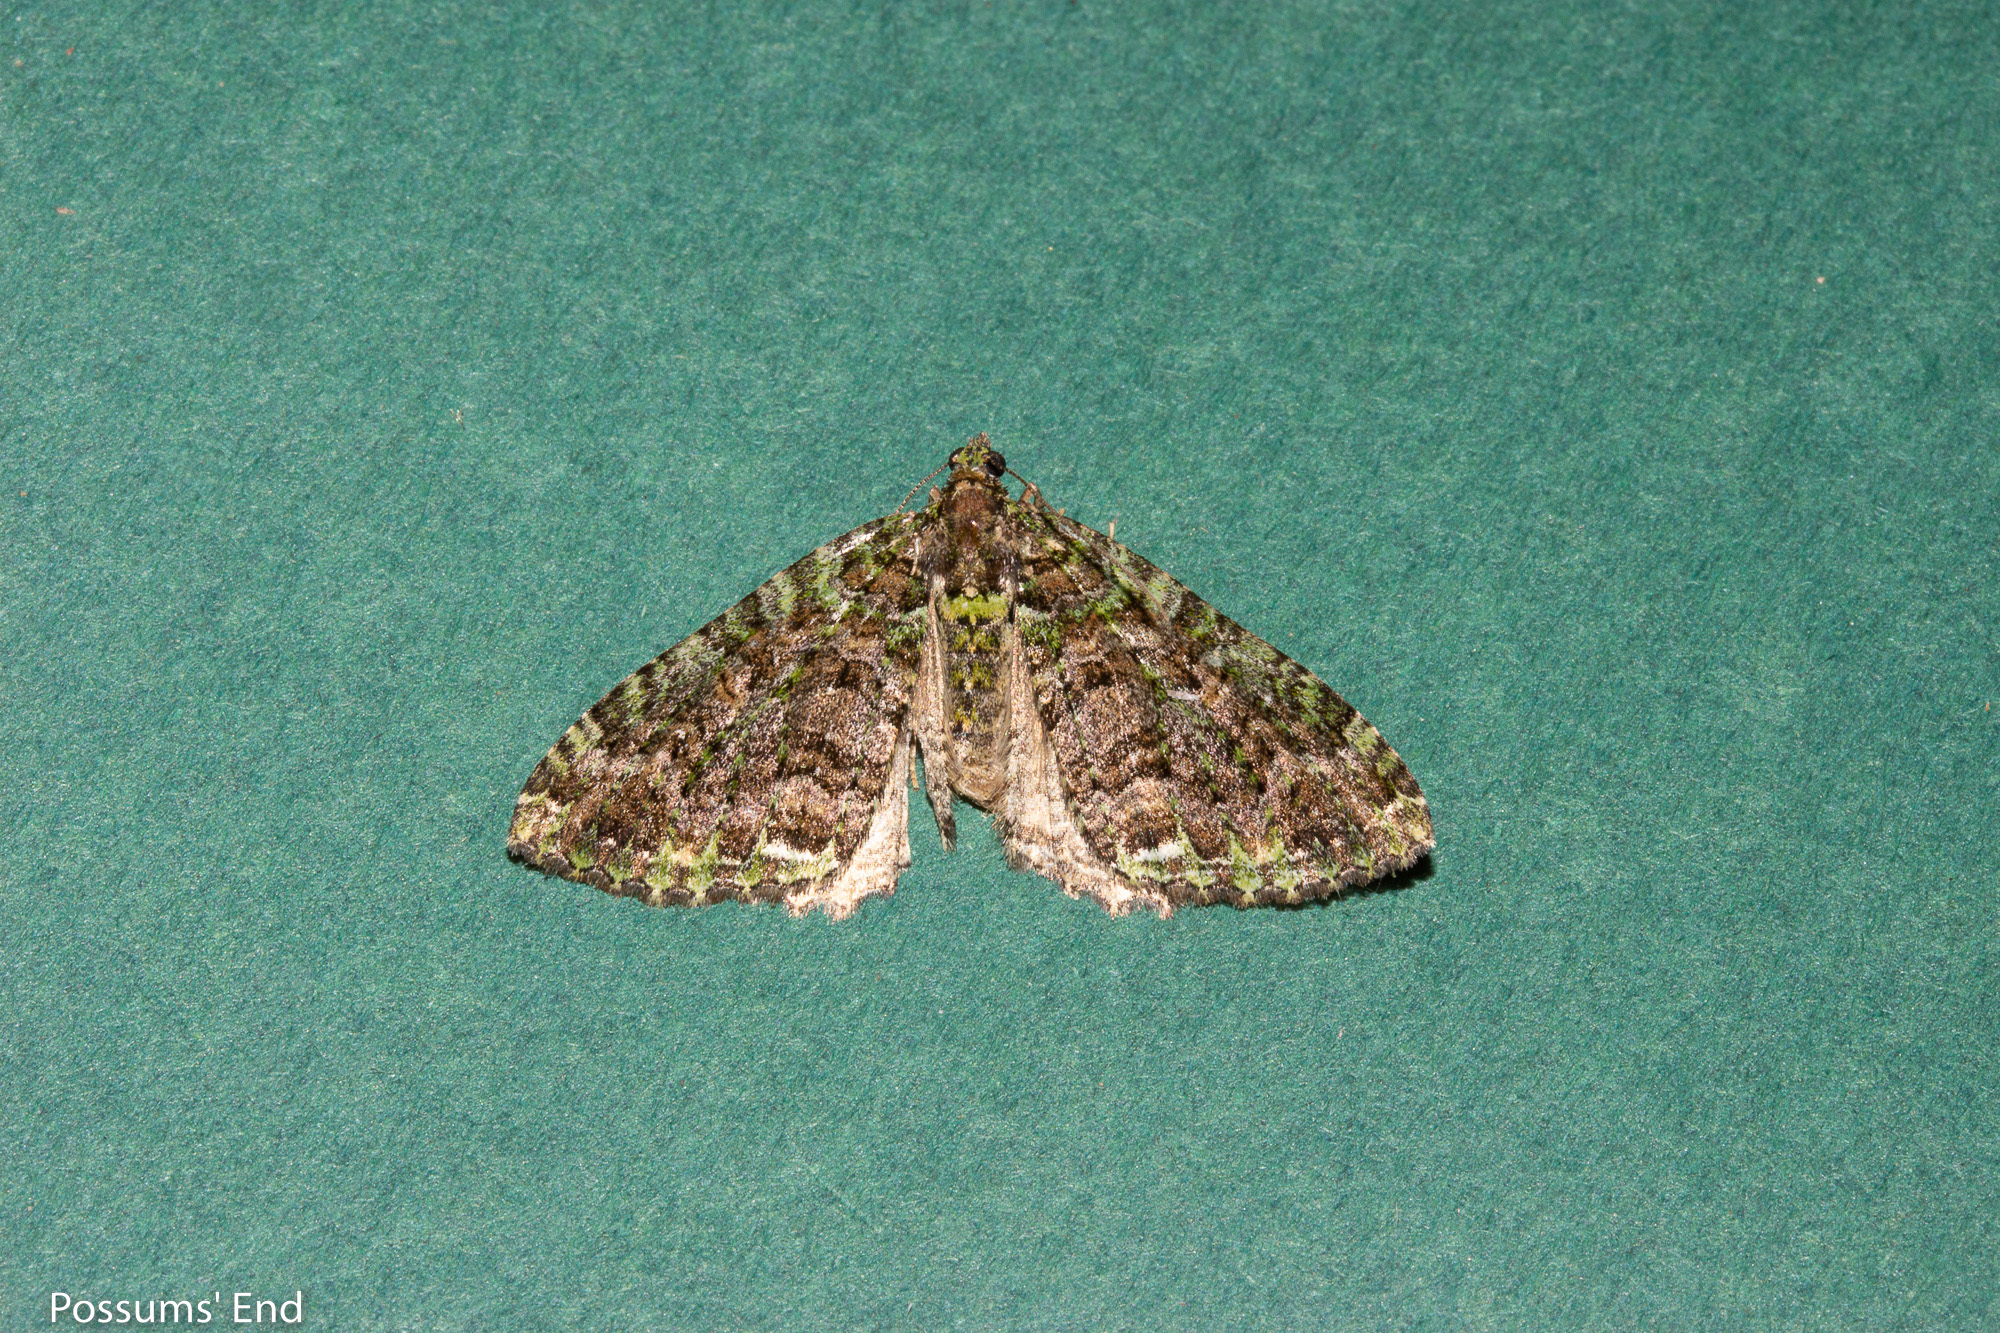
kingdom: Animalia
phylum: Arthropoda
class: Insecta
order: Lepidoptera
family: Geometridae
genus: Austrocidaria
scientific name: Austrocidaria similata
